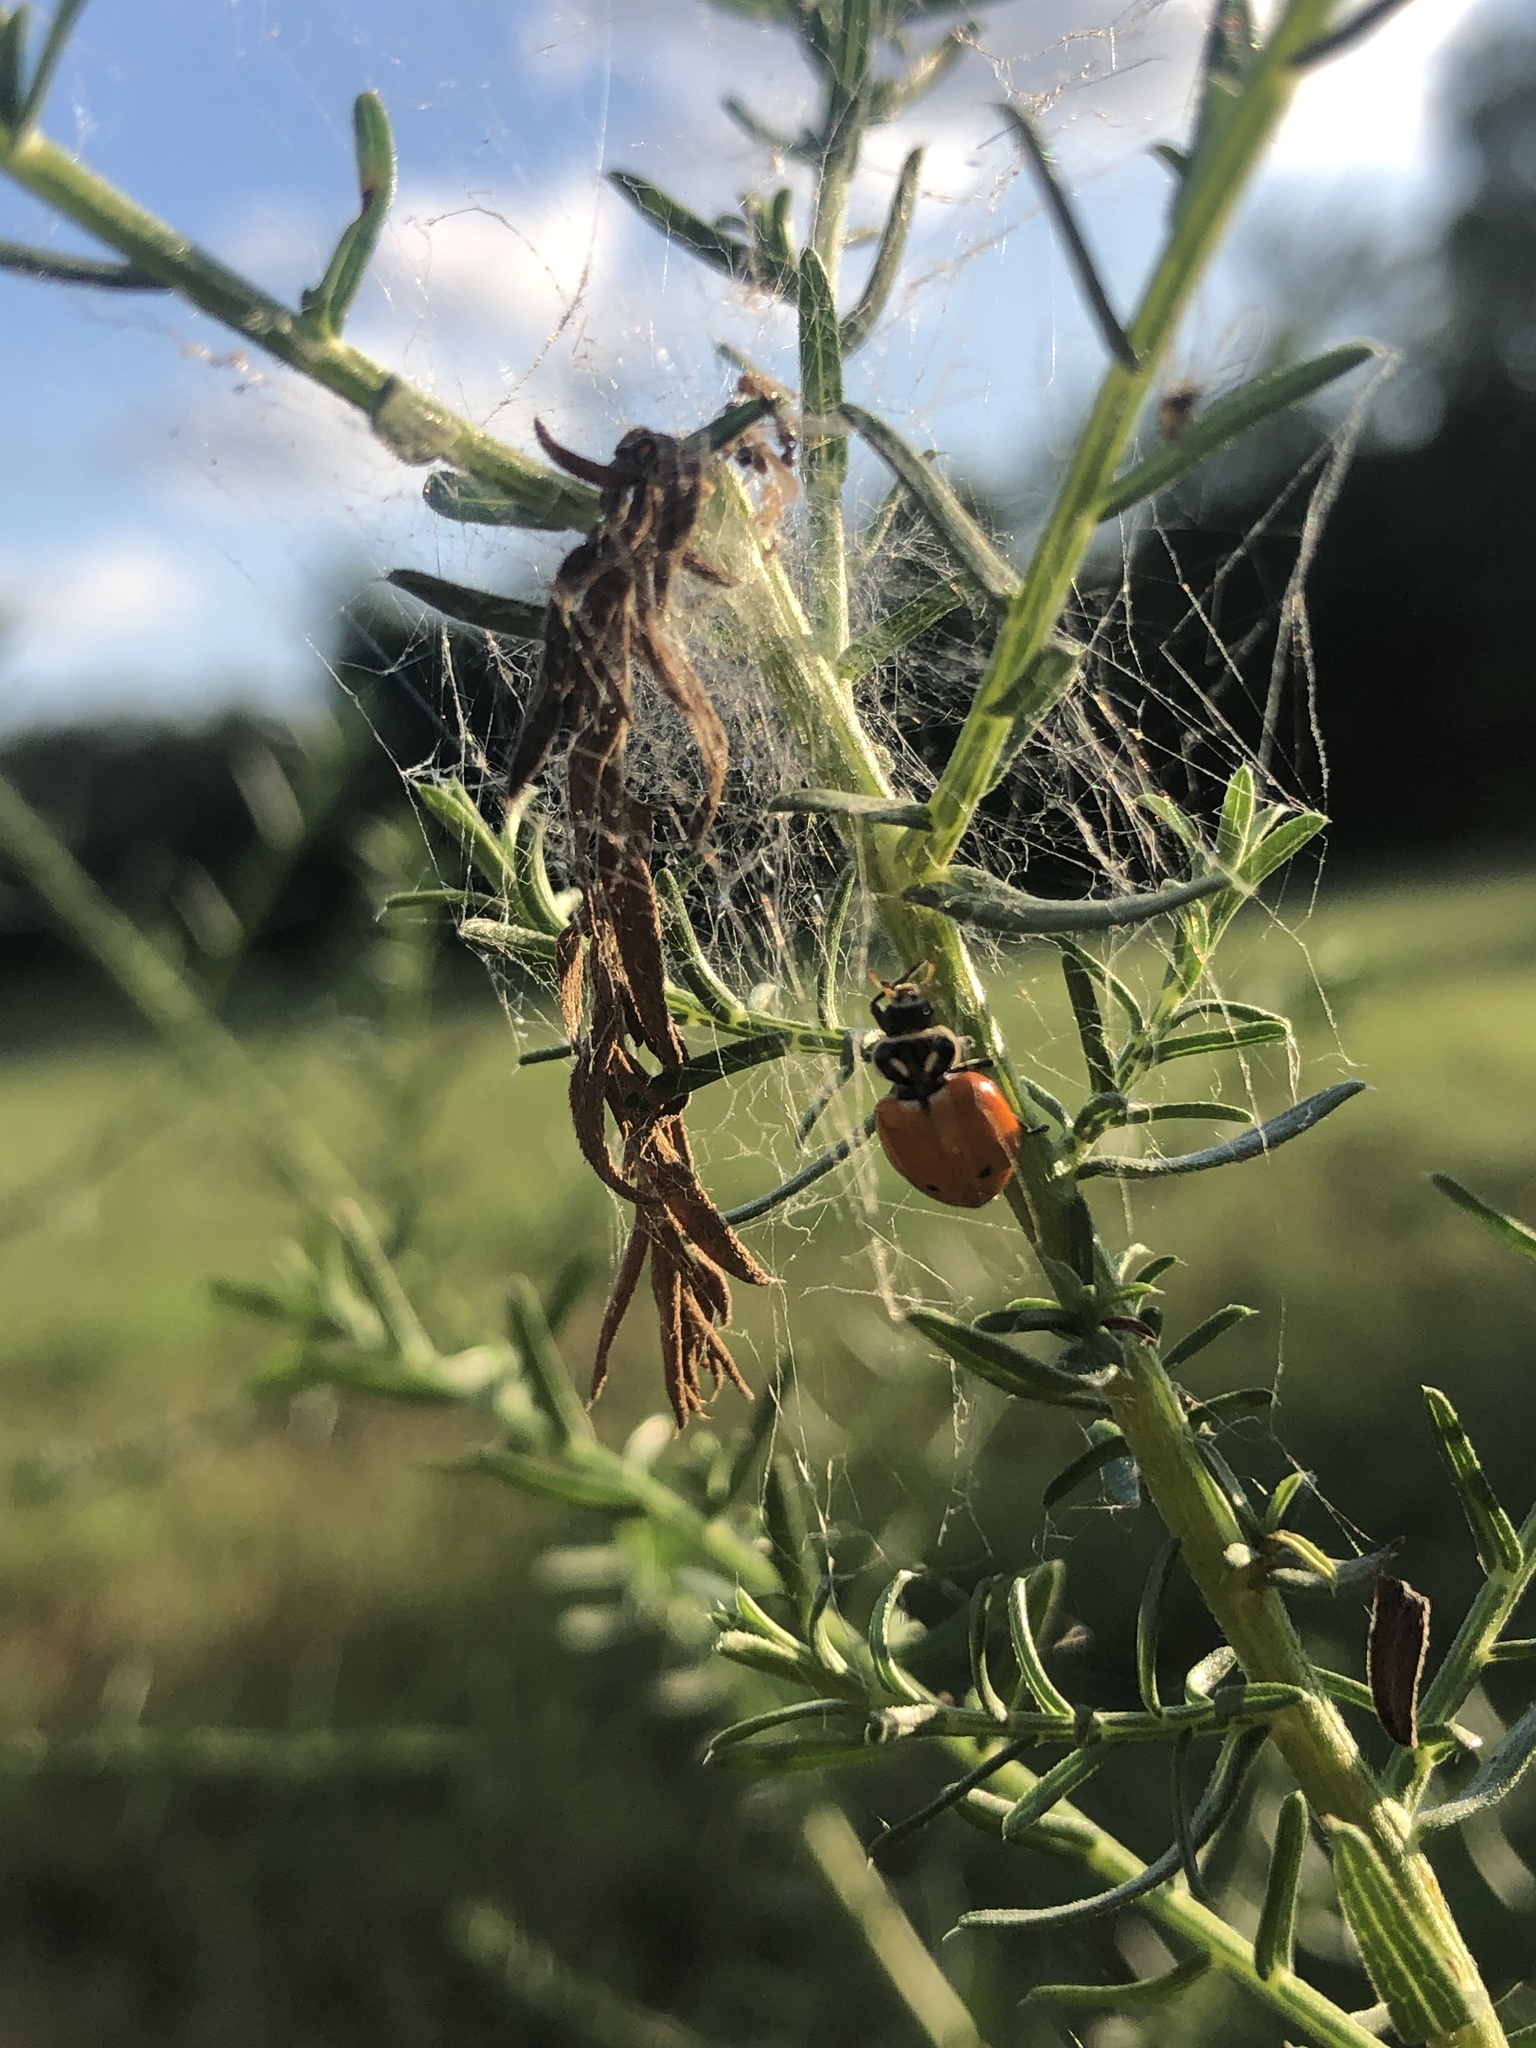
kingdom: Animalia
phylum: Arthropoda
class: Insecta
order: Coleoptera
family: Coccinellidae
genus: Hippodamia
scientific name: Hippodamia convergens
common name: Convergent lady beetle
